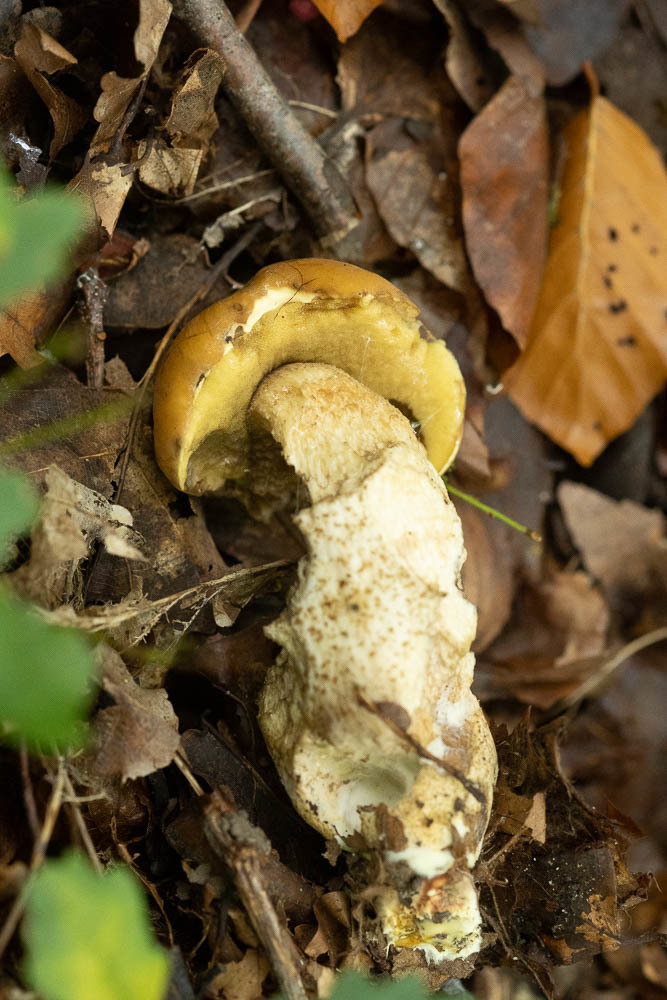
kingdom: Fungi
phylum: Basidiomycota
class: Agaricomycetes
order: Boletales
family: Boletaceae
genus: Leccinellum
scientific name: Leccinellum crocipodium
